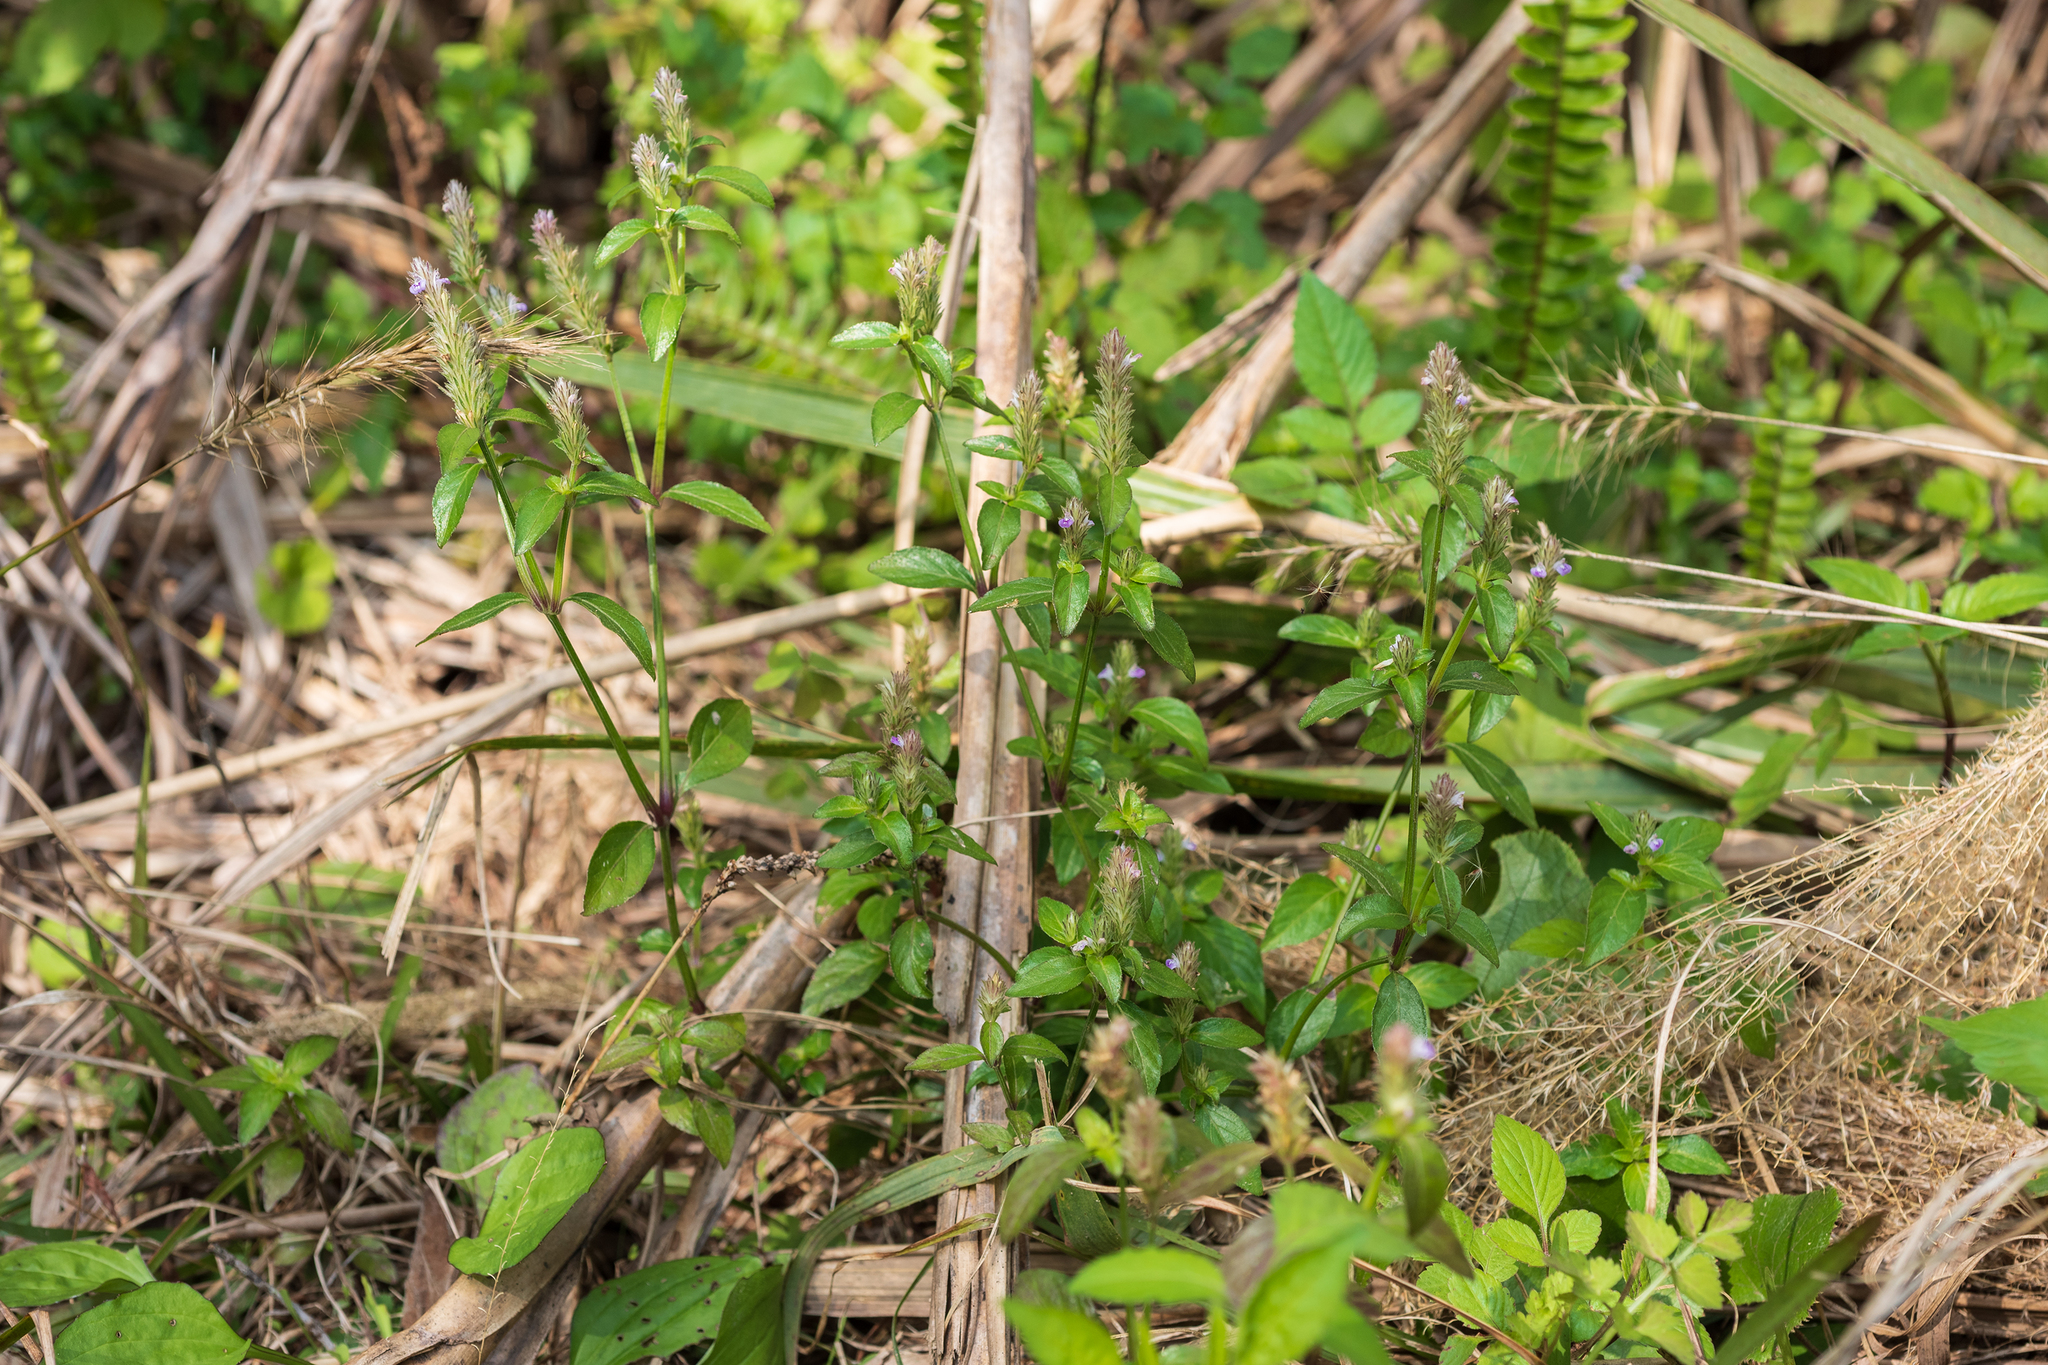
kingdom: Plantae
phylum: Tracheophyta
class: Magnoliopsida
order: Lamiales
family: Acanthaceae
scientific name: Acanthaceae
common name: Acanthaceae
